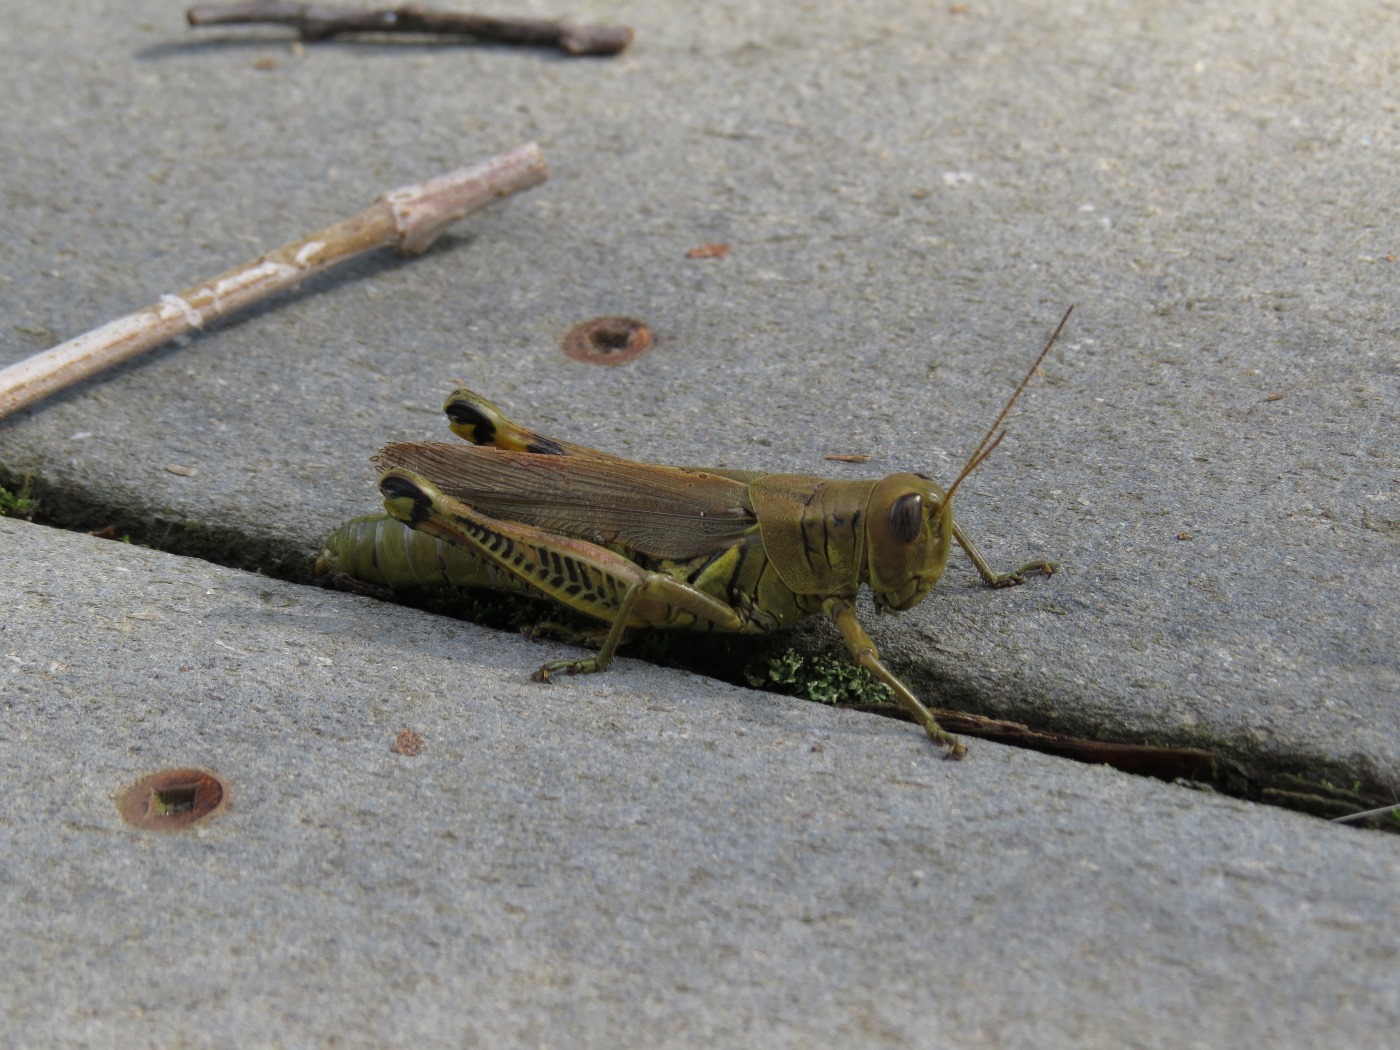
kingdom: Animalia
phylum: Arthropoda
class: Insecta
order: Orthoptera
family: Acrididae
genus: Melanoplus
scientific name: Melanoplus differentialis
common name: Differential grasshopper
